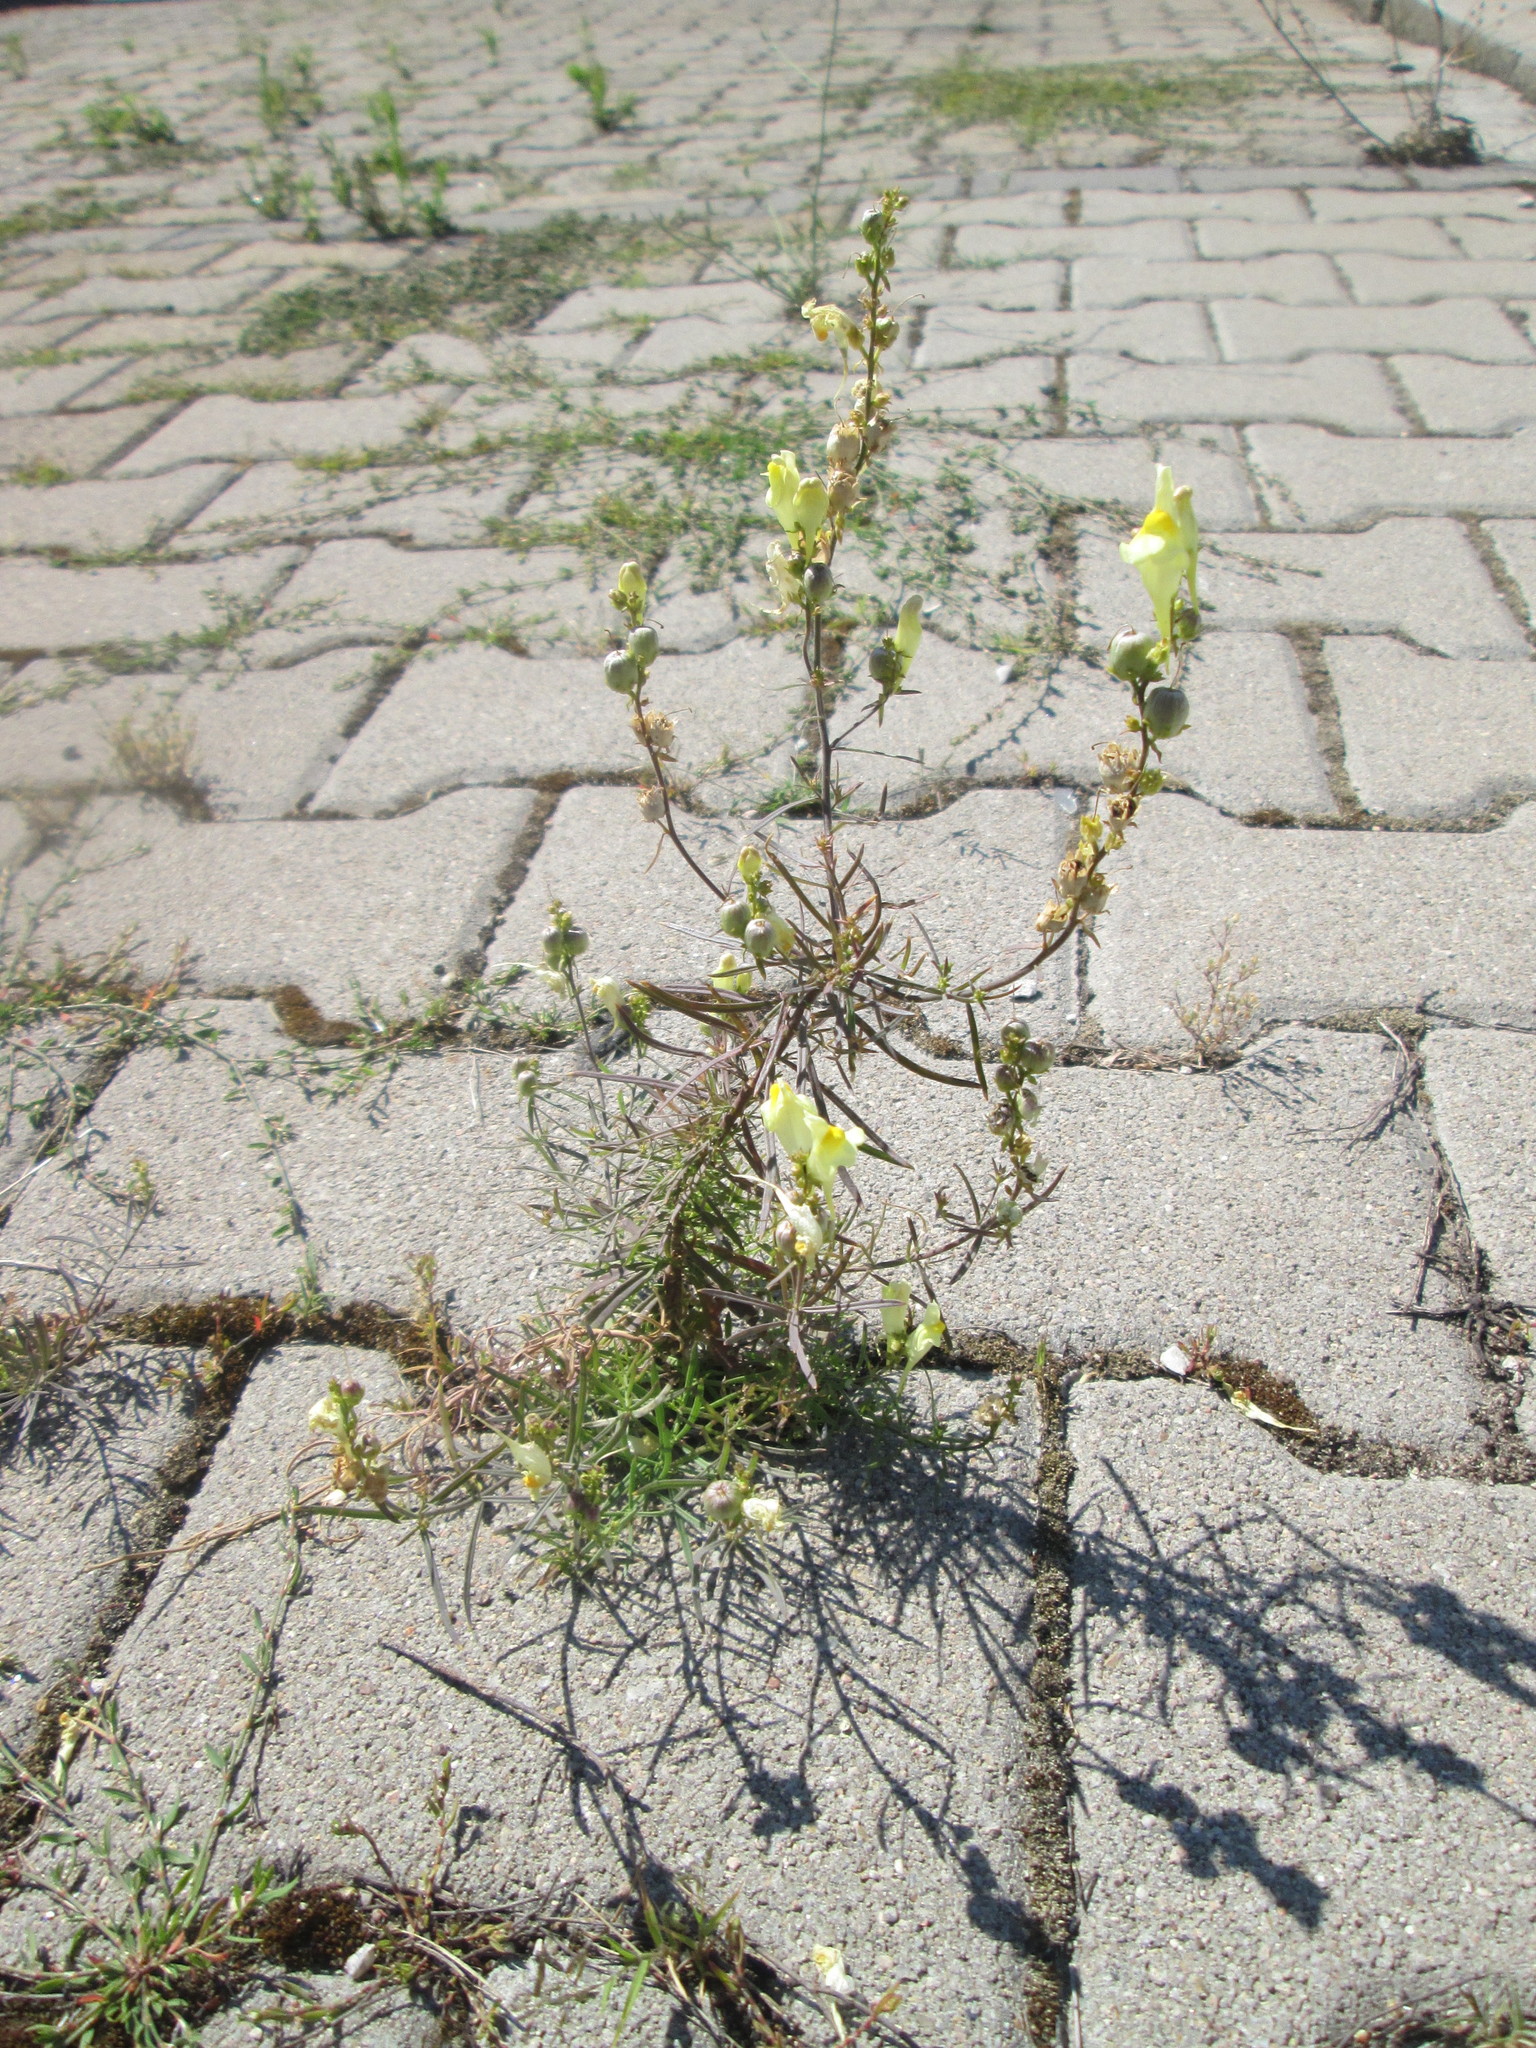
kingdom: Plantae
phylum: Tracheophyta
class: Magnoliopsida
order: Lamiales
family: Plantaginaceae
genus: Linaria
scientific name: Linaria vulgaris
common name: Butter and eggs
